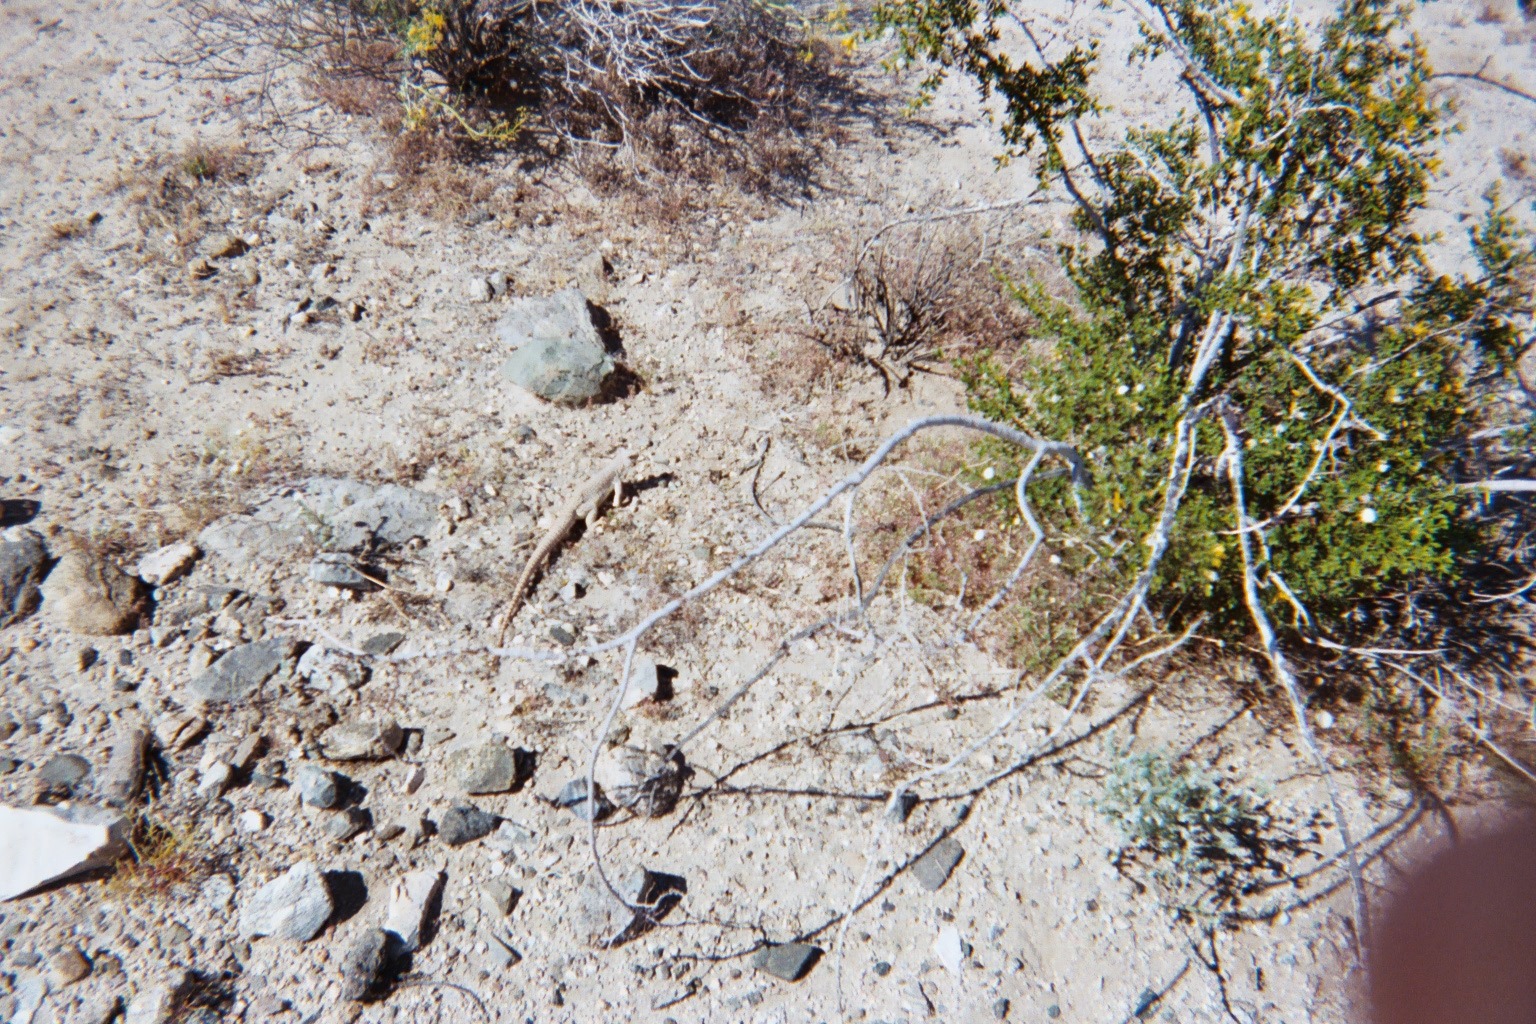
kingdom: Animalia
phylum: Chordata
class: Squamata
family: Iguanidae
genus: Dipsosaurus
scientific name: Dipsosaurus dorsalis
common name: Desert iguana
